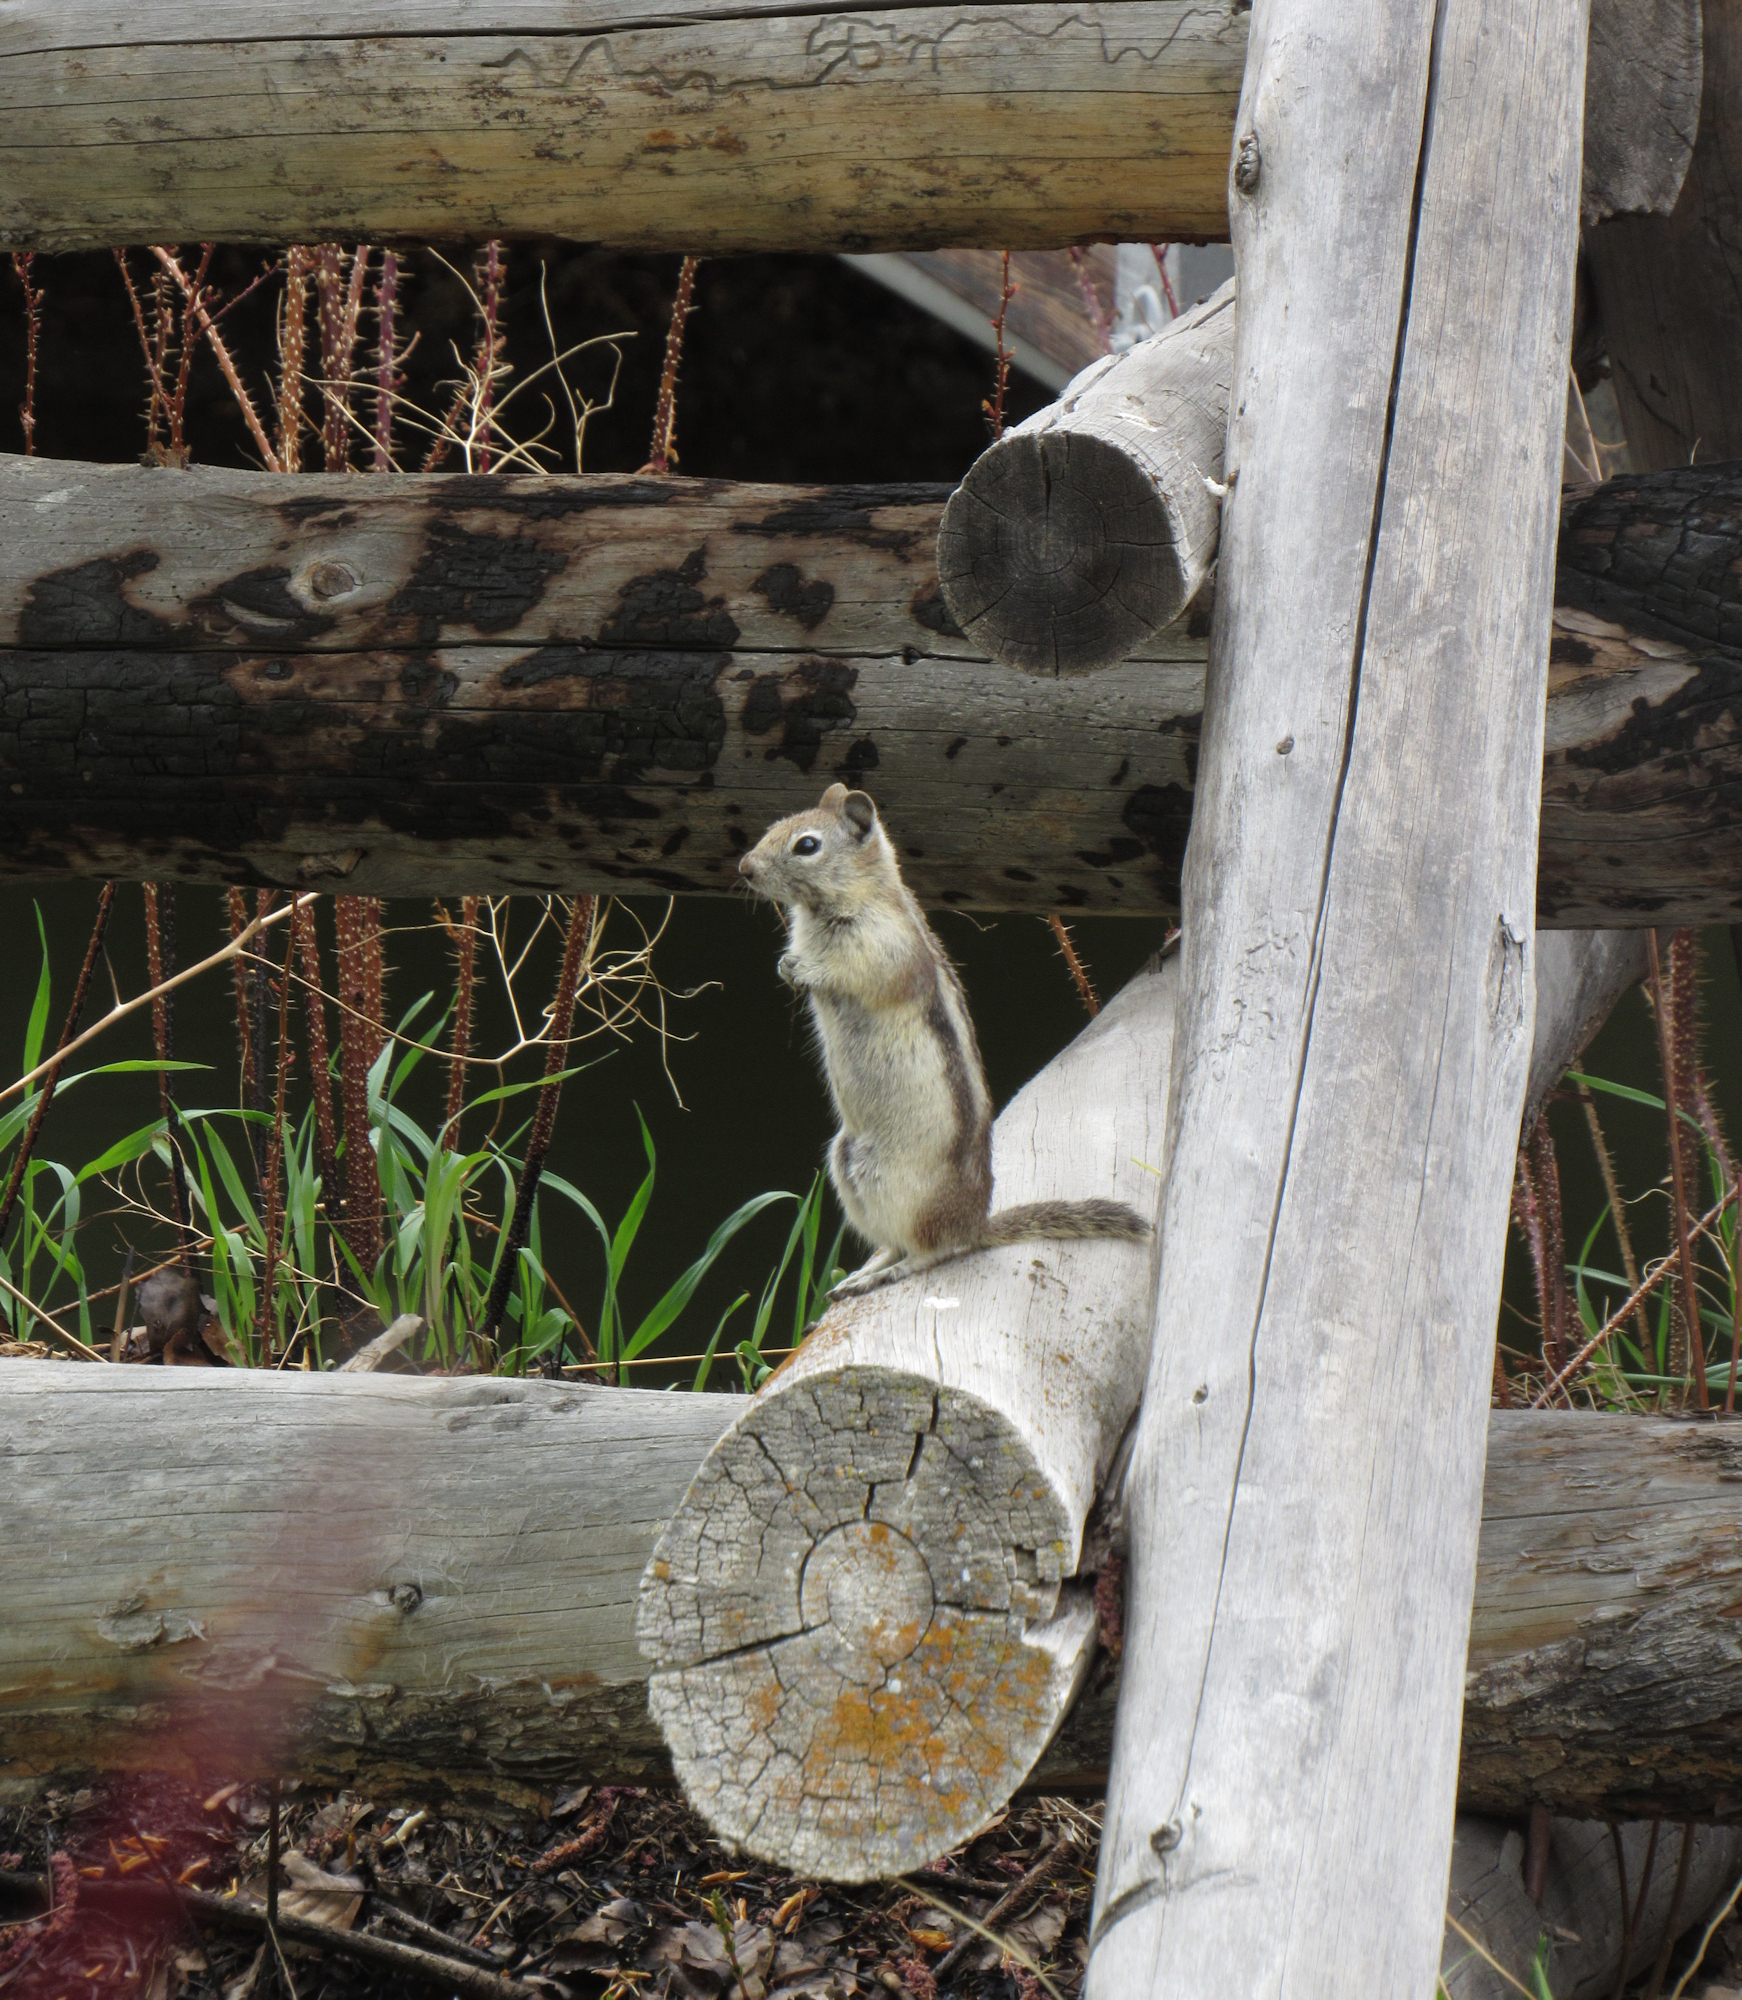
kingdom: Animalia
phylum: Chordata
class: Mammalia
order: Rodentia
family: Sciuridae
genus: Callospermophilus
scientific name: Callospermophilus lateralis
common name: Golden-mantled ground squirrel
